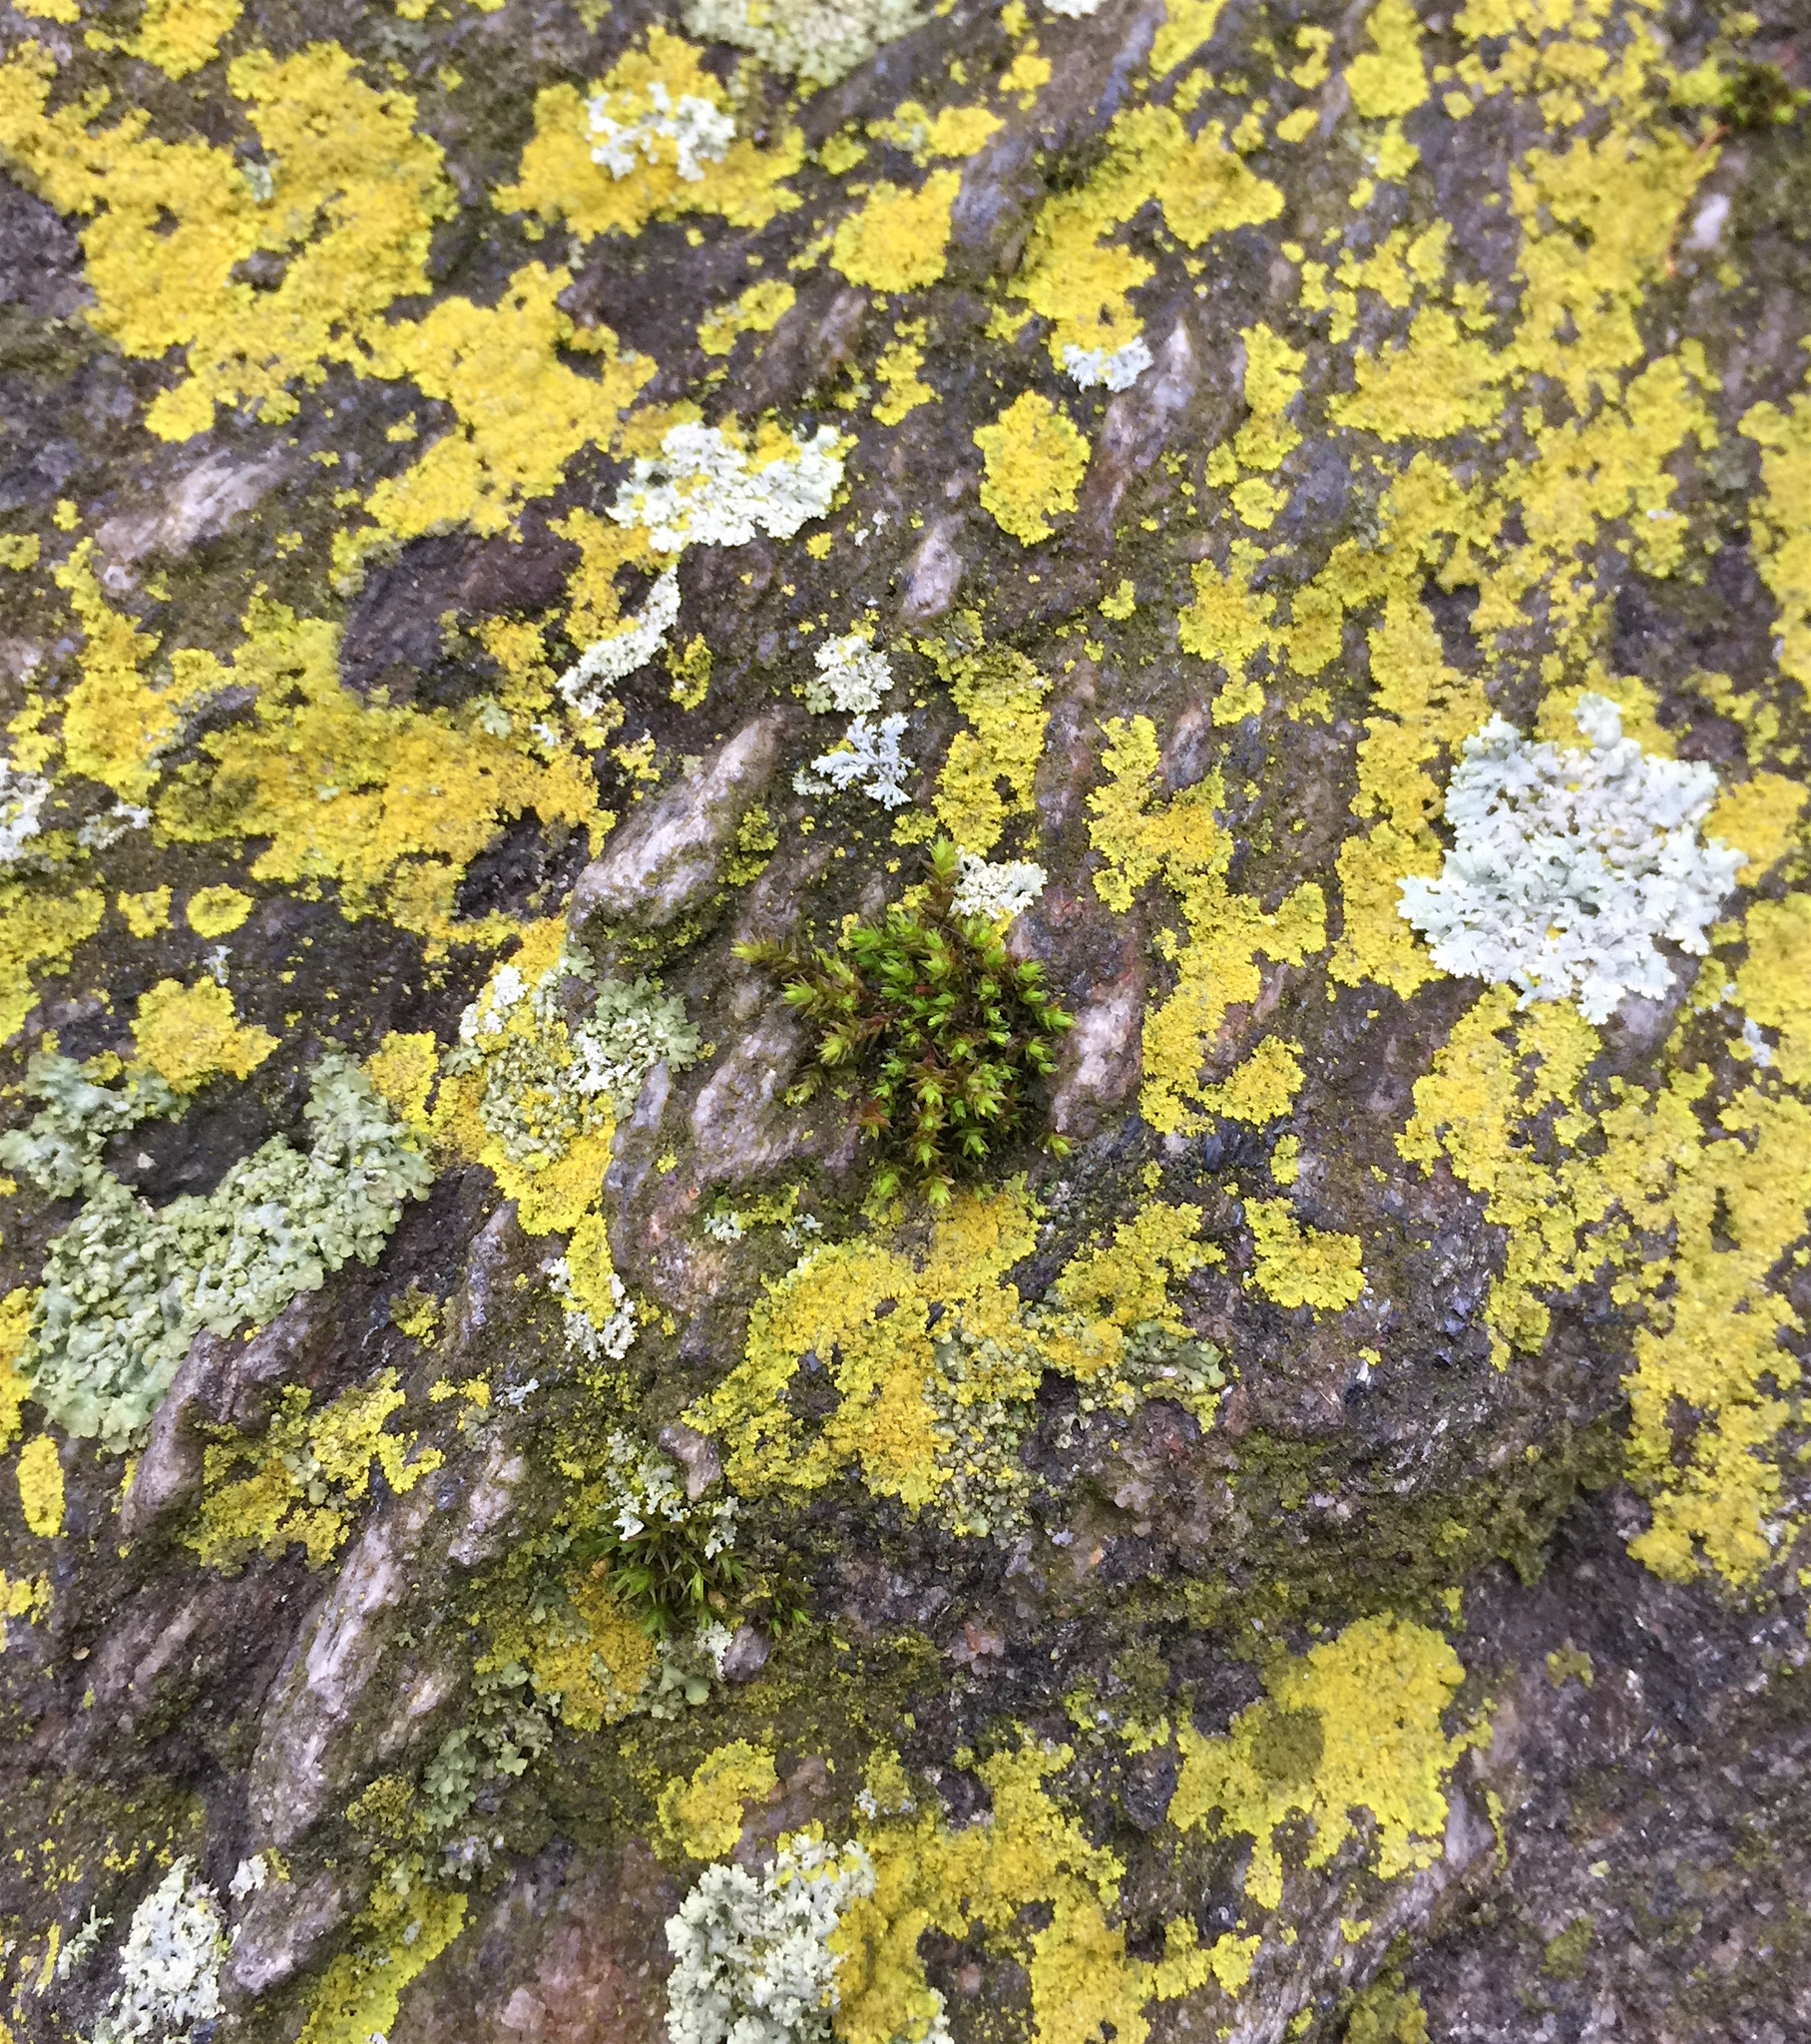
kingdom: Fungi
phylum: Ascomycota
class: Candelariomycetes
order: Candelariales
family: Candelariaceae
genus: Candelaria
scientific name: Candelaria concolor
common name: Candleflame lichen
